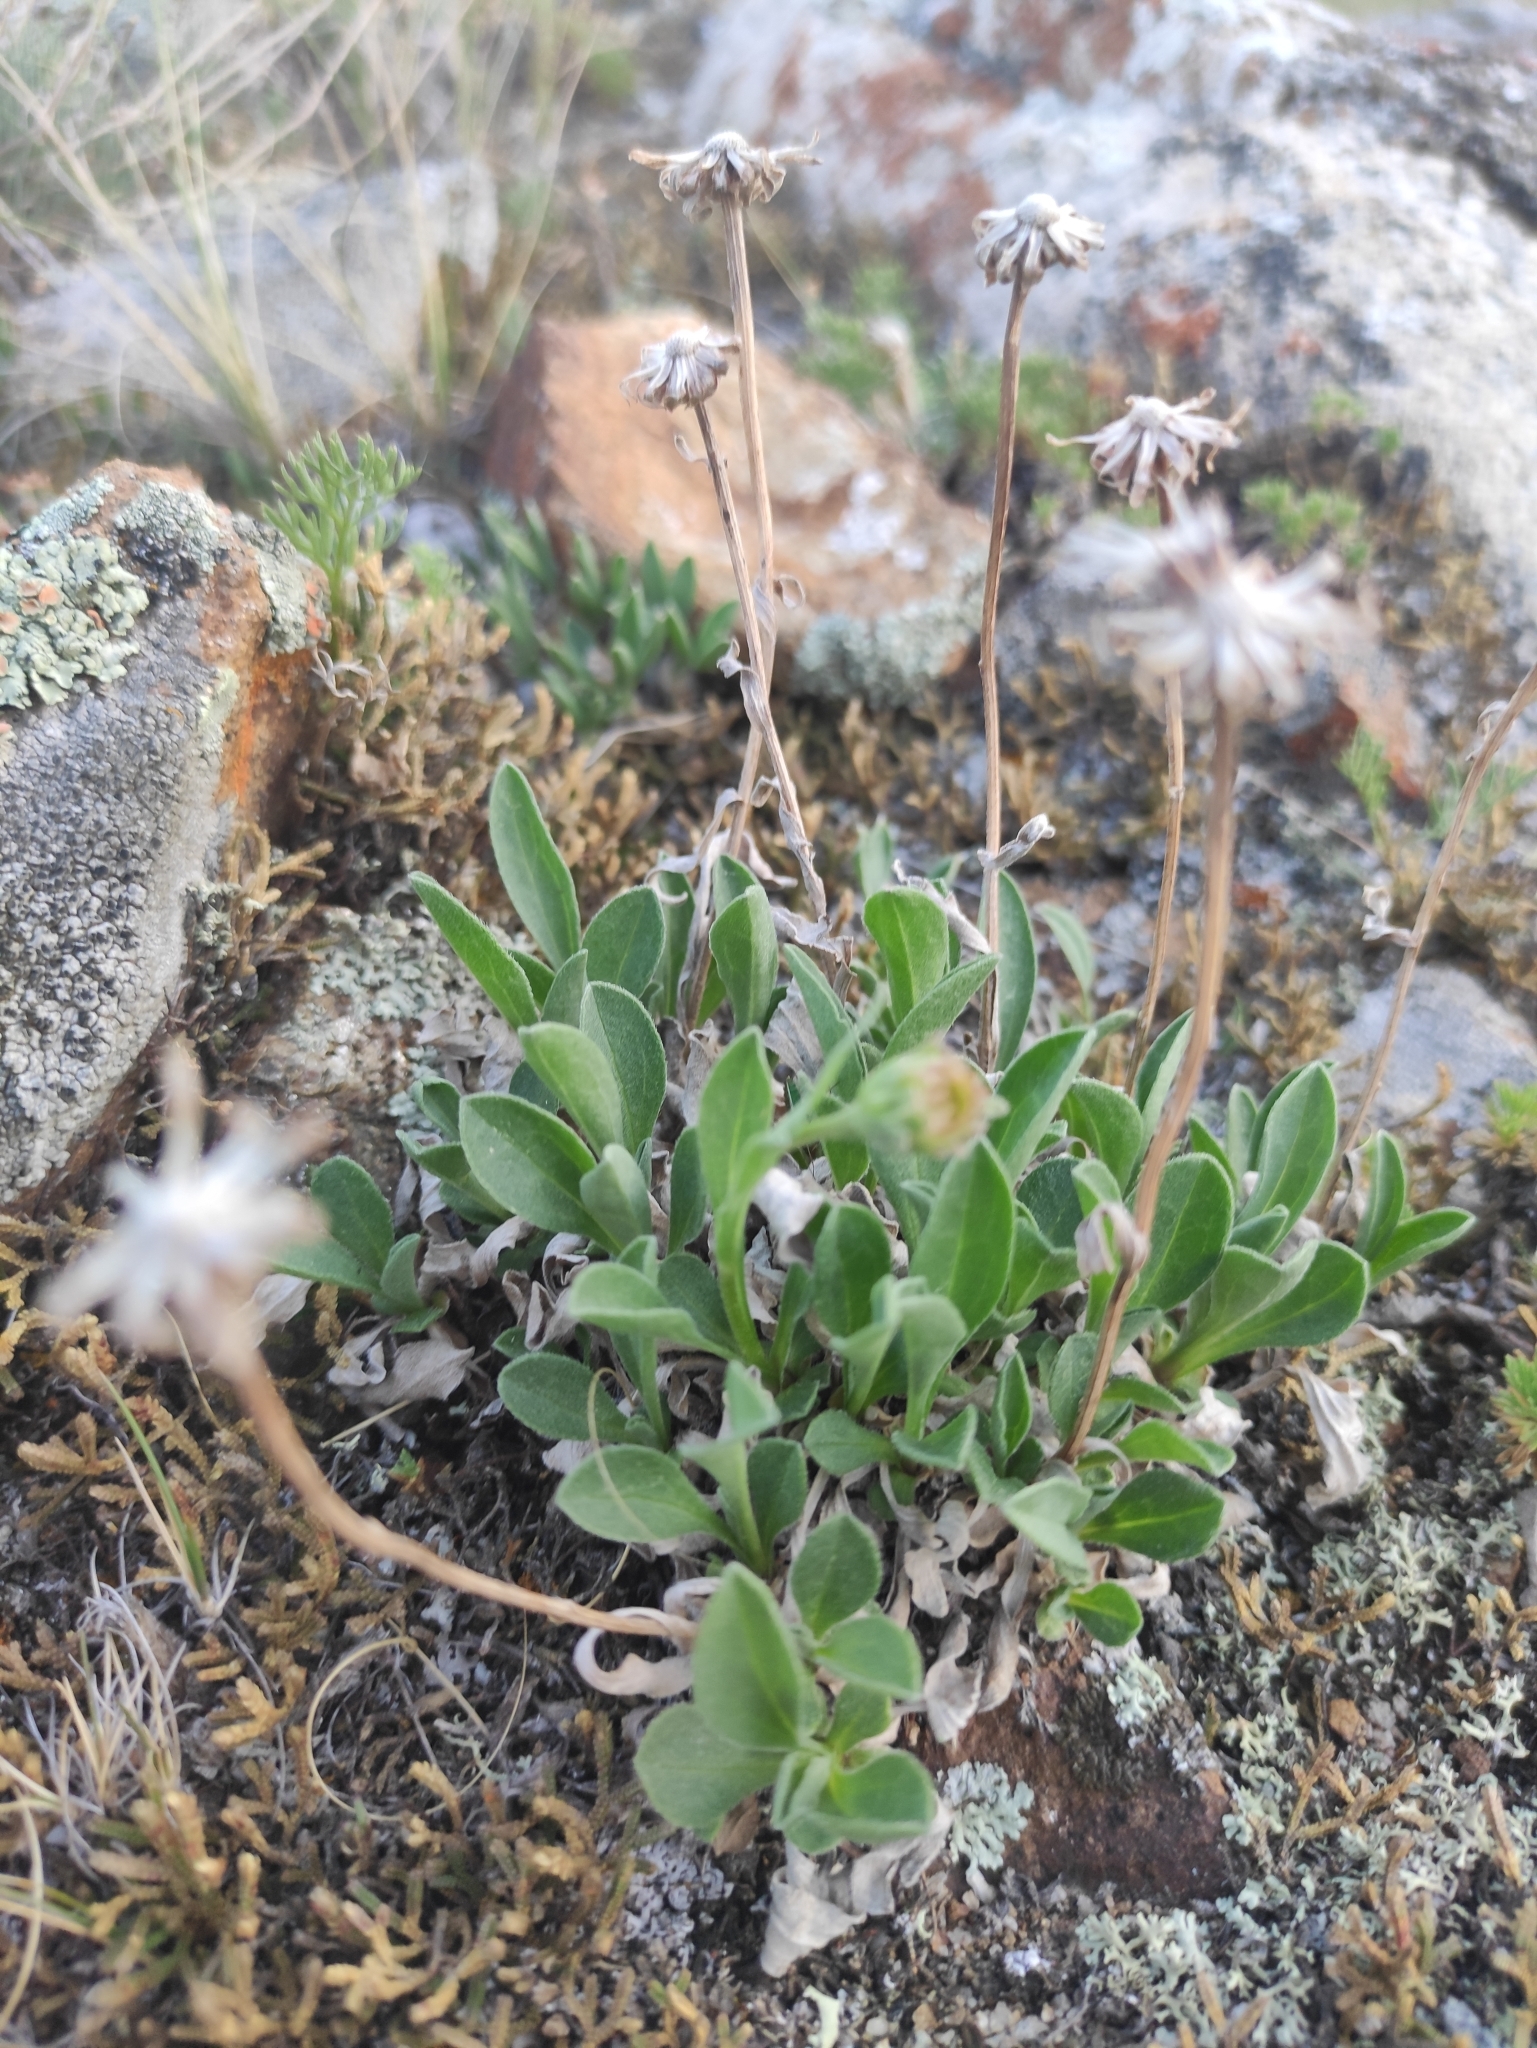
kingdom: Plantae
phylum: Tracheophyta
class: Magnoliopsida
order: Asterales
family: Asteraceae
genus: Aster
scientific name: Aster alpinus
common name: Alpine aster
